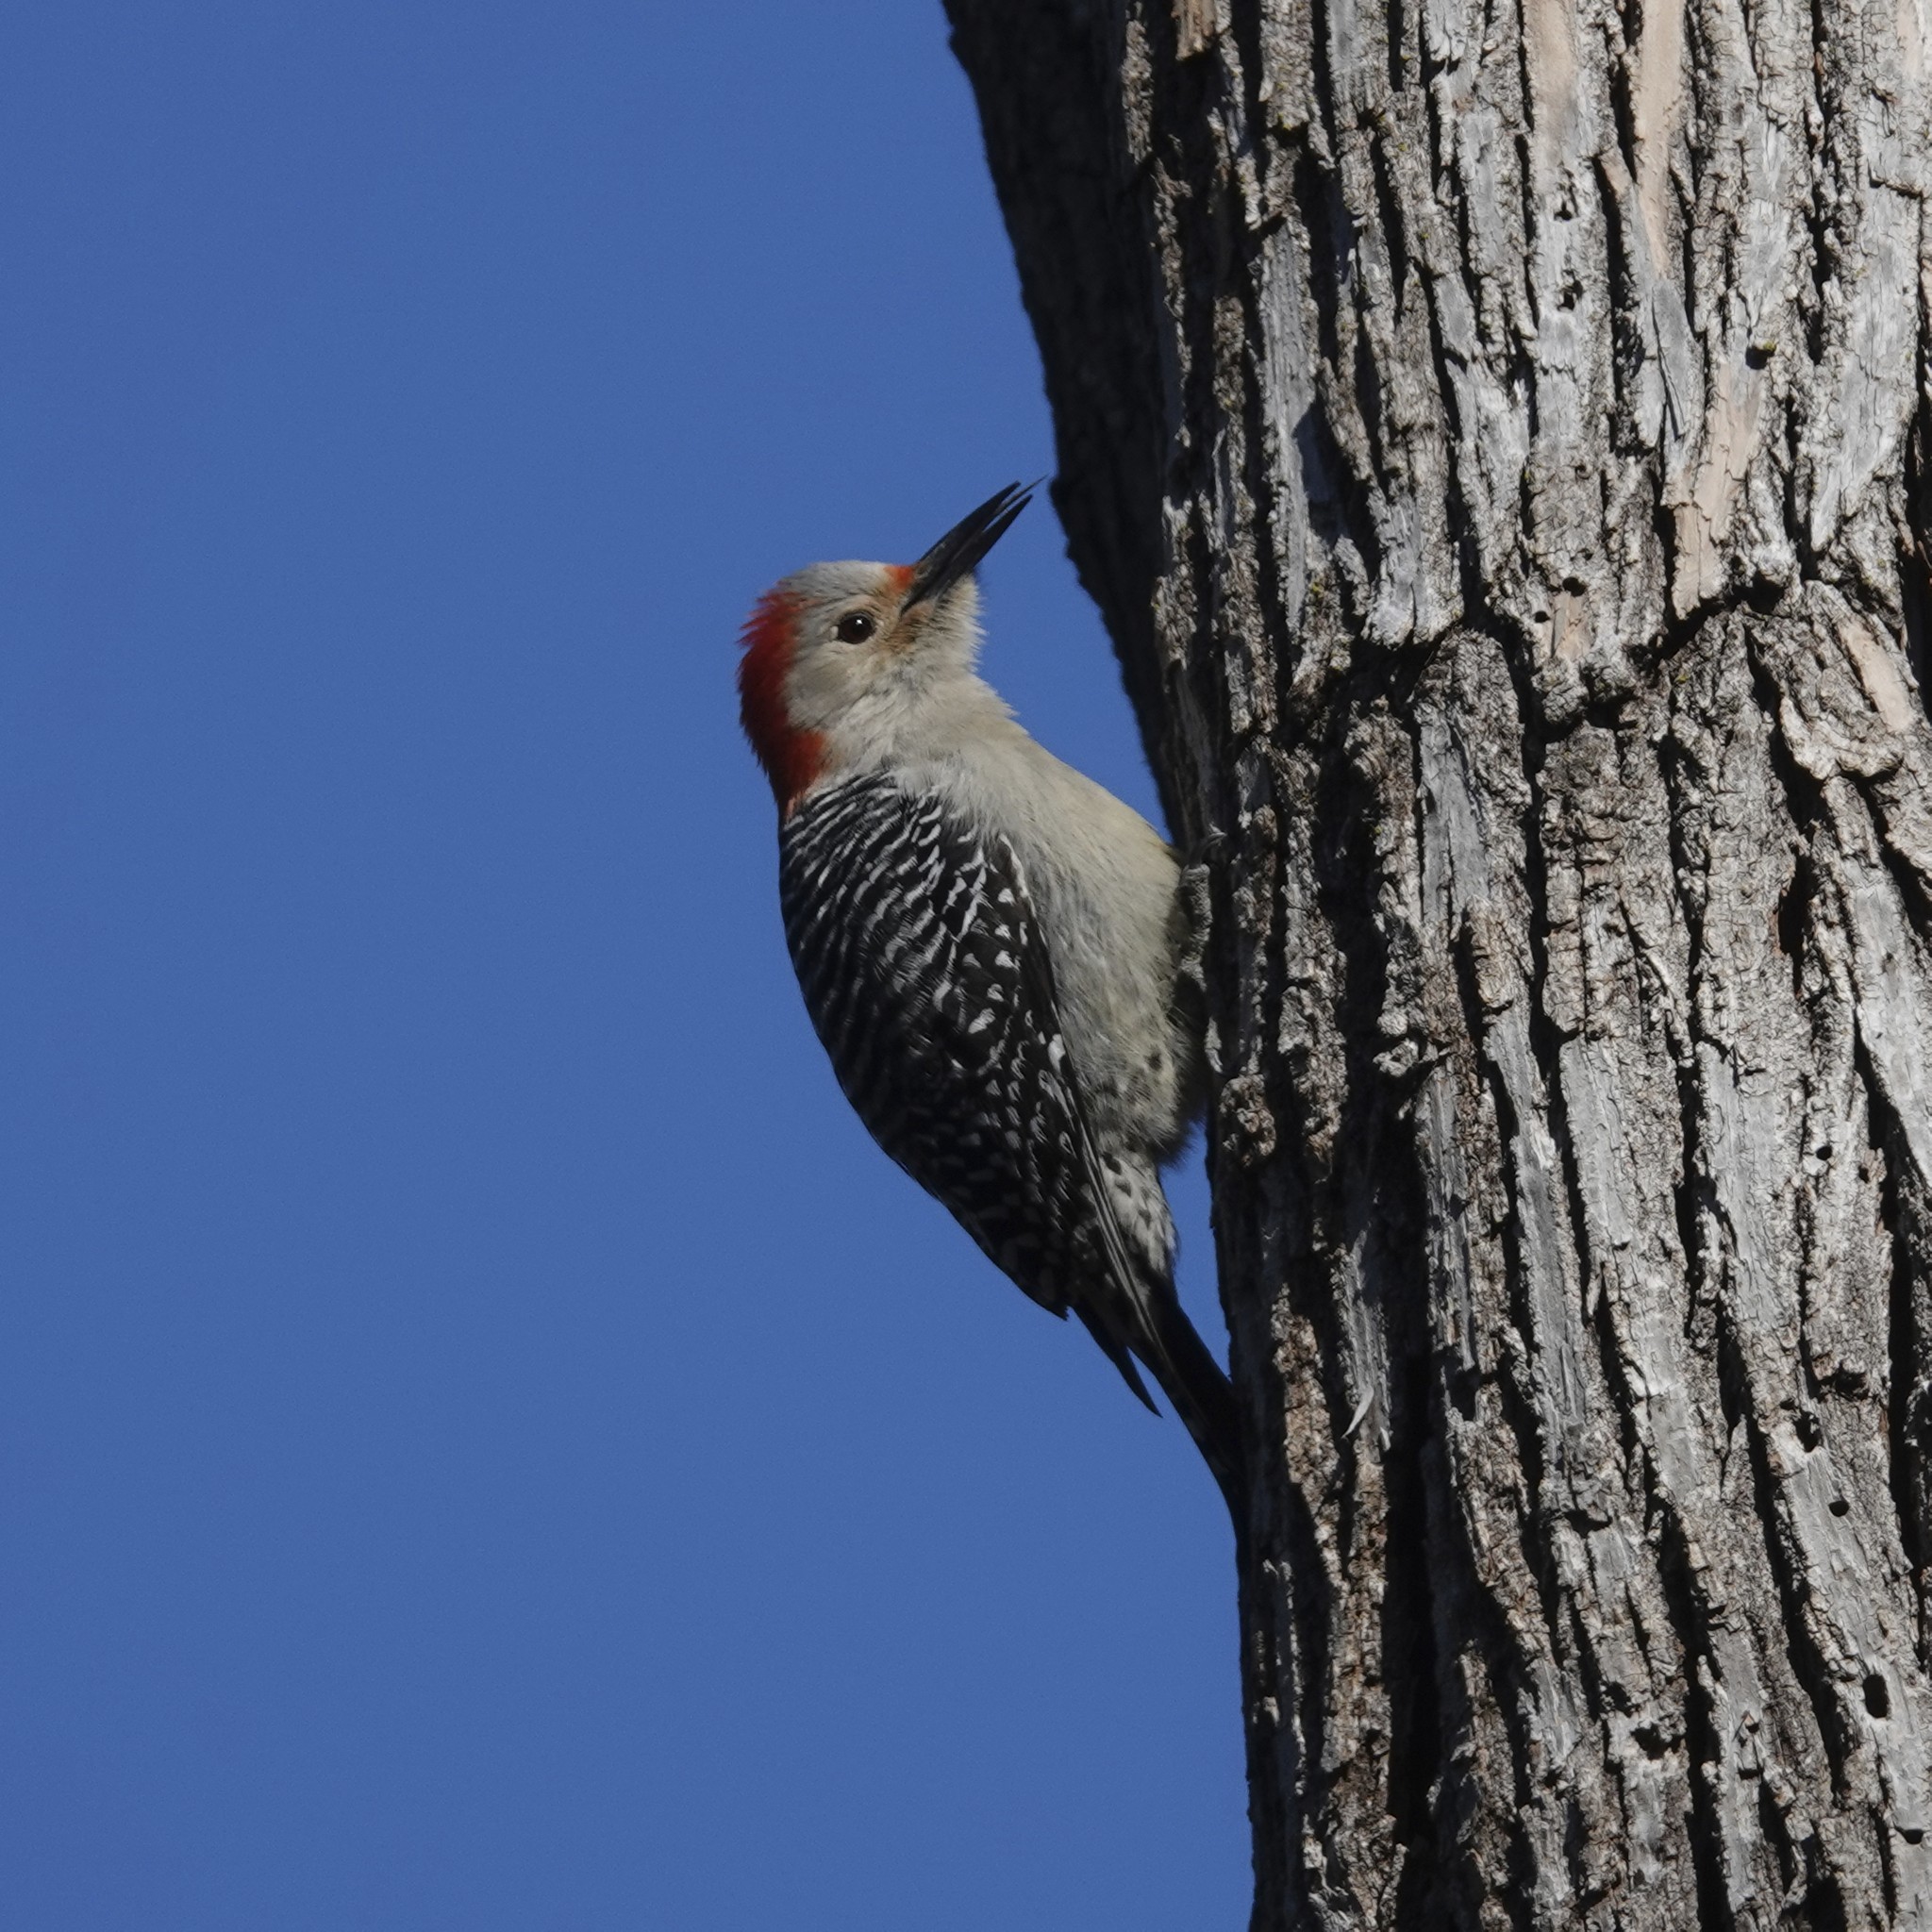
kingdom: Animalia
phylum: Chordata
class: Aves
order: Piciformes
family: Picidae
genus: Melanerpes
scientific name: Melanerpes carolinus
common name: Red-bellied woodpecker
